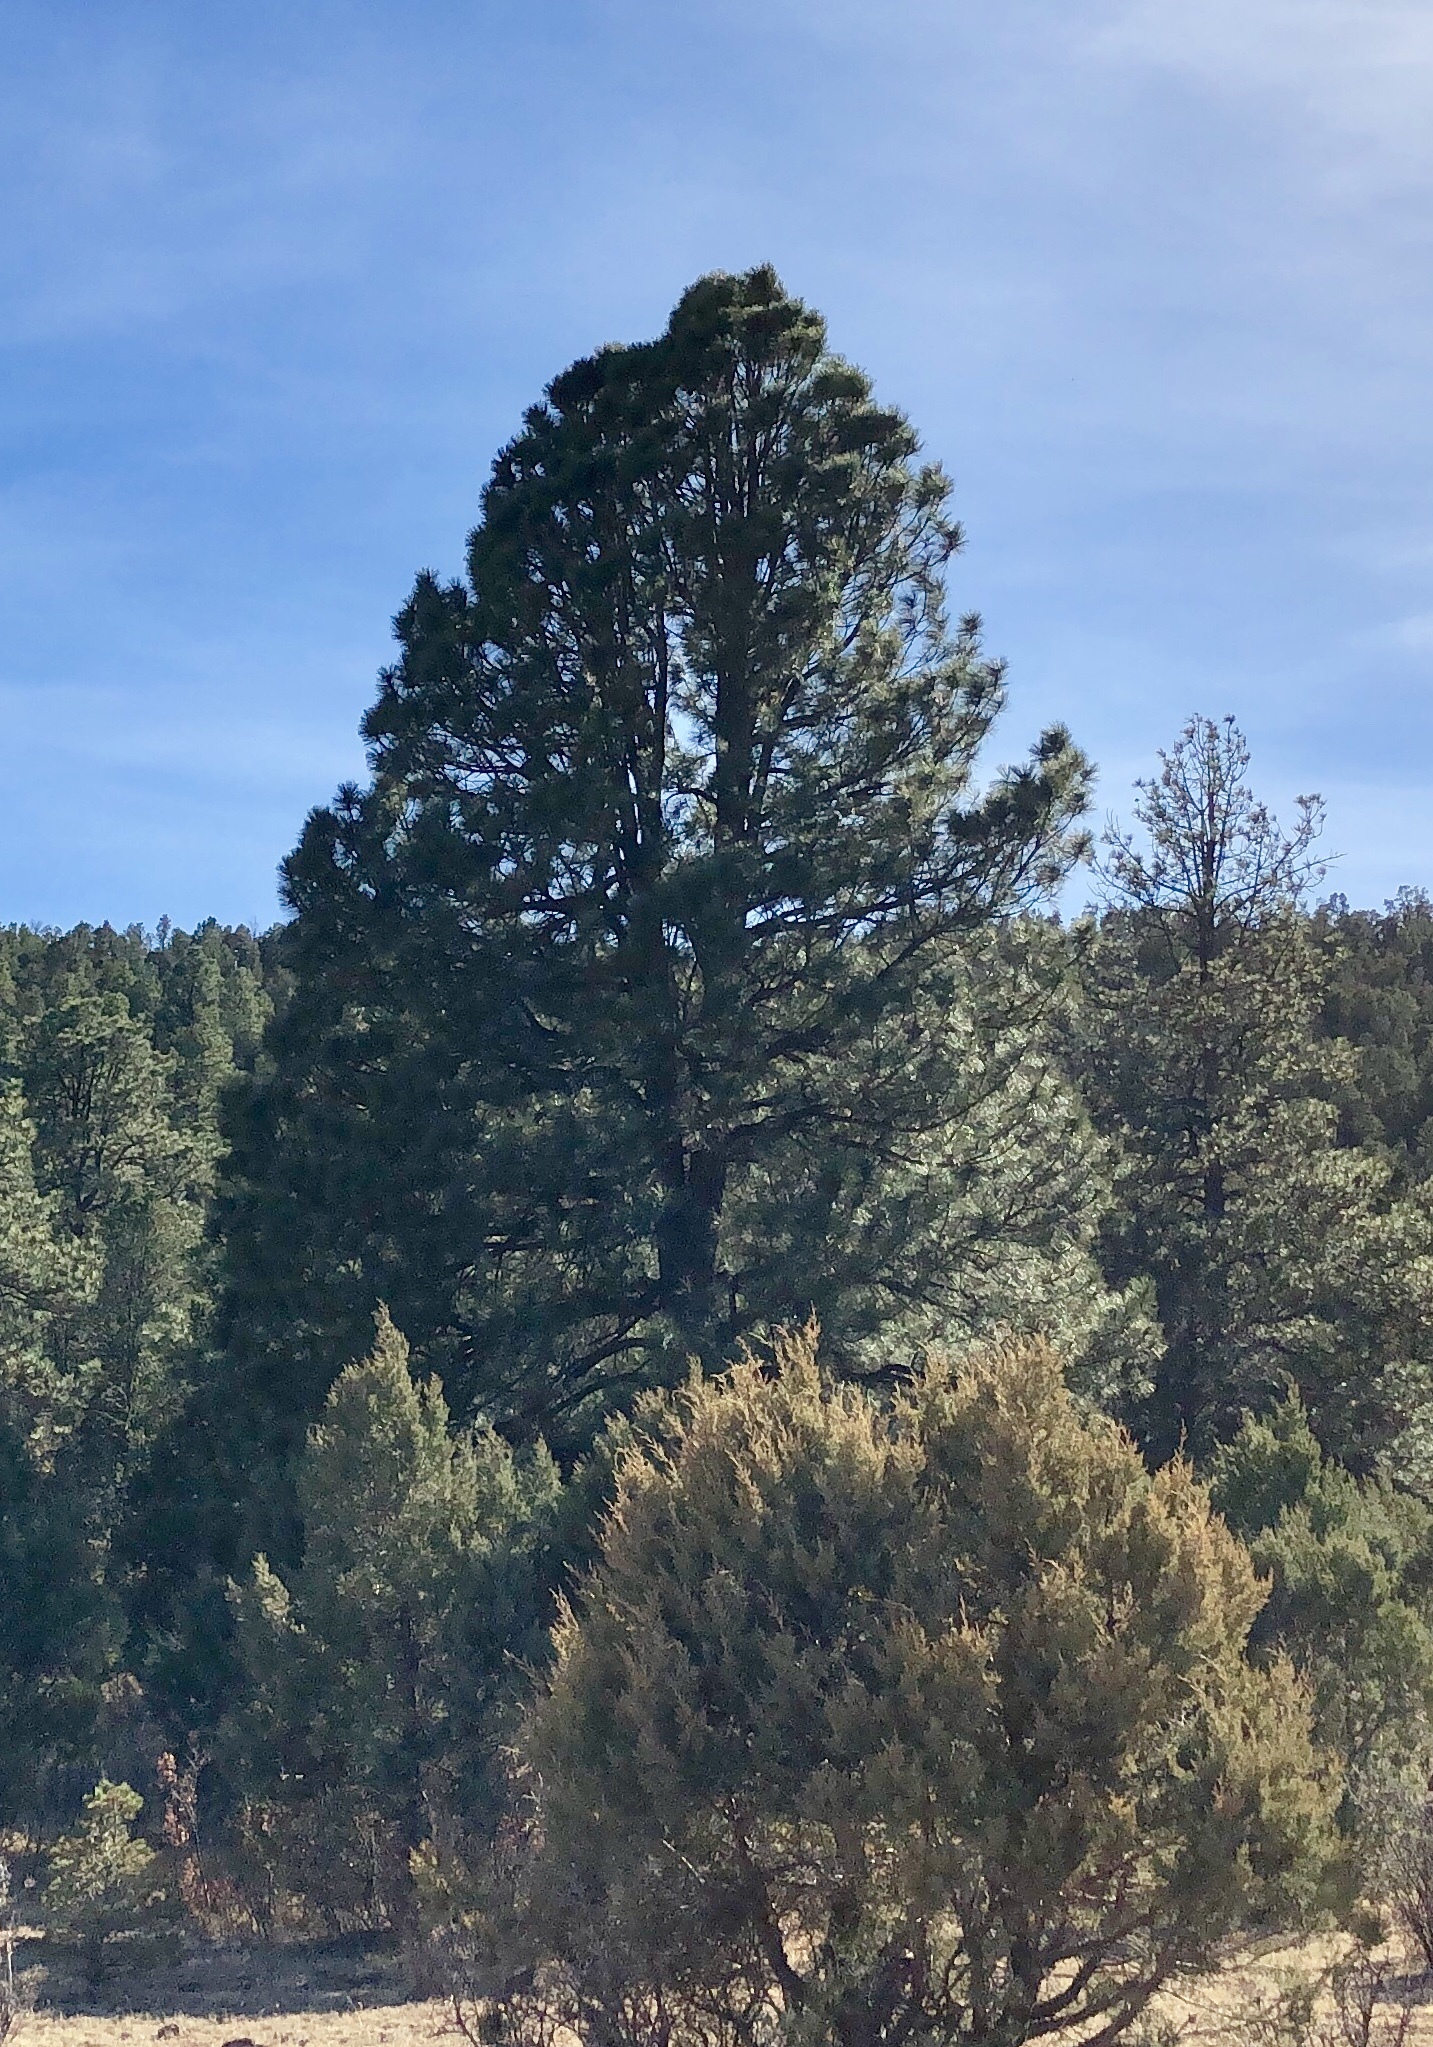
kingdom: Plantae
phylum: Tracheophyta
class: Pinopsida
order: Pinales
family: Pinaceae
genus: Pinus
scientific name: Pinus ponderosa
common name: Western yellow-pine
